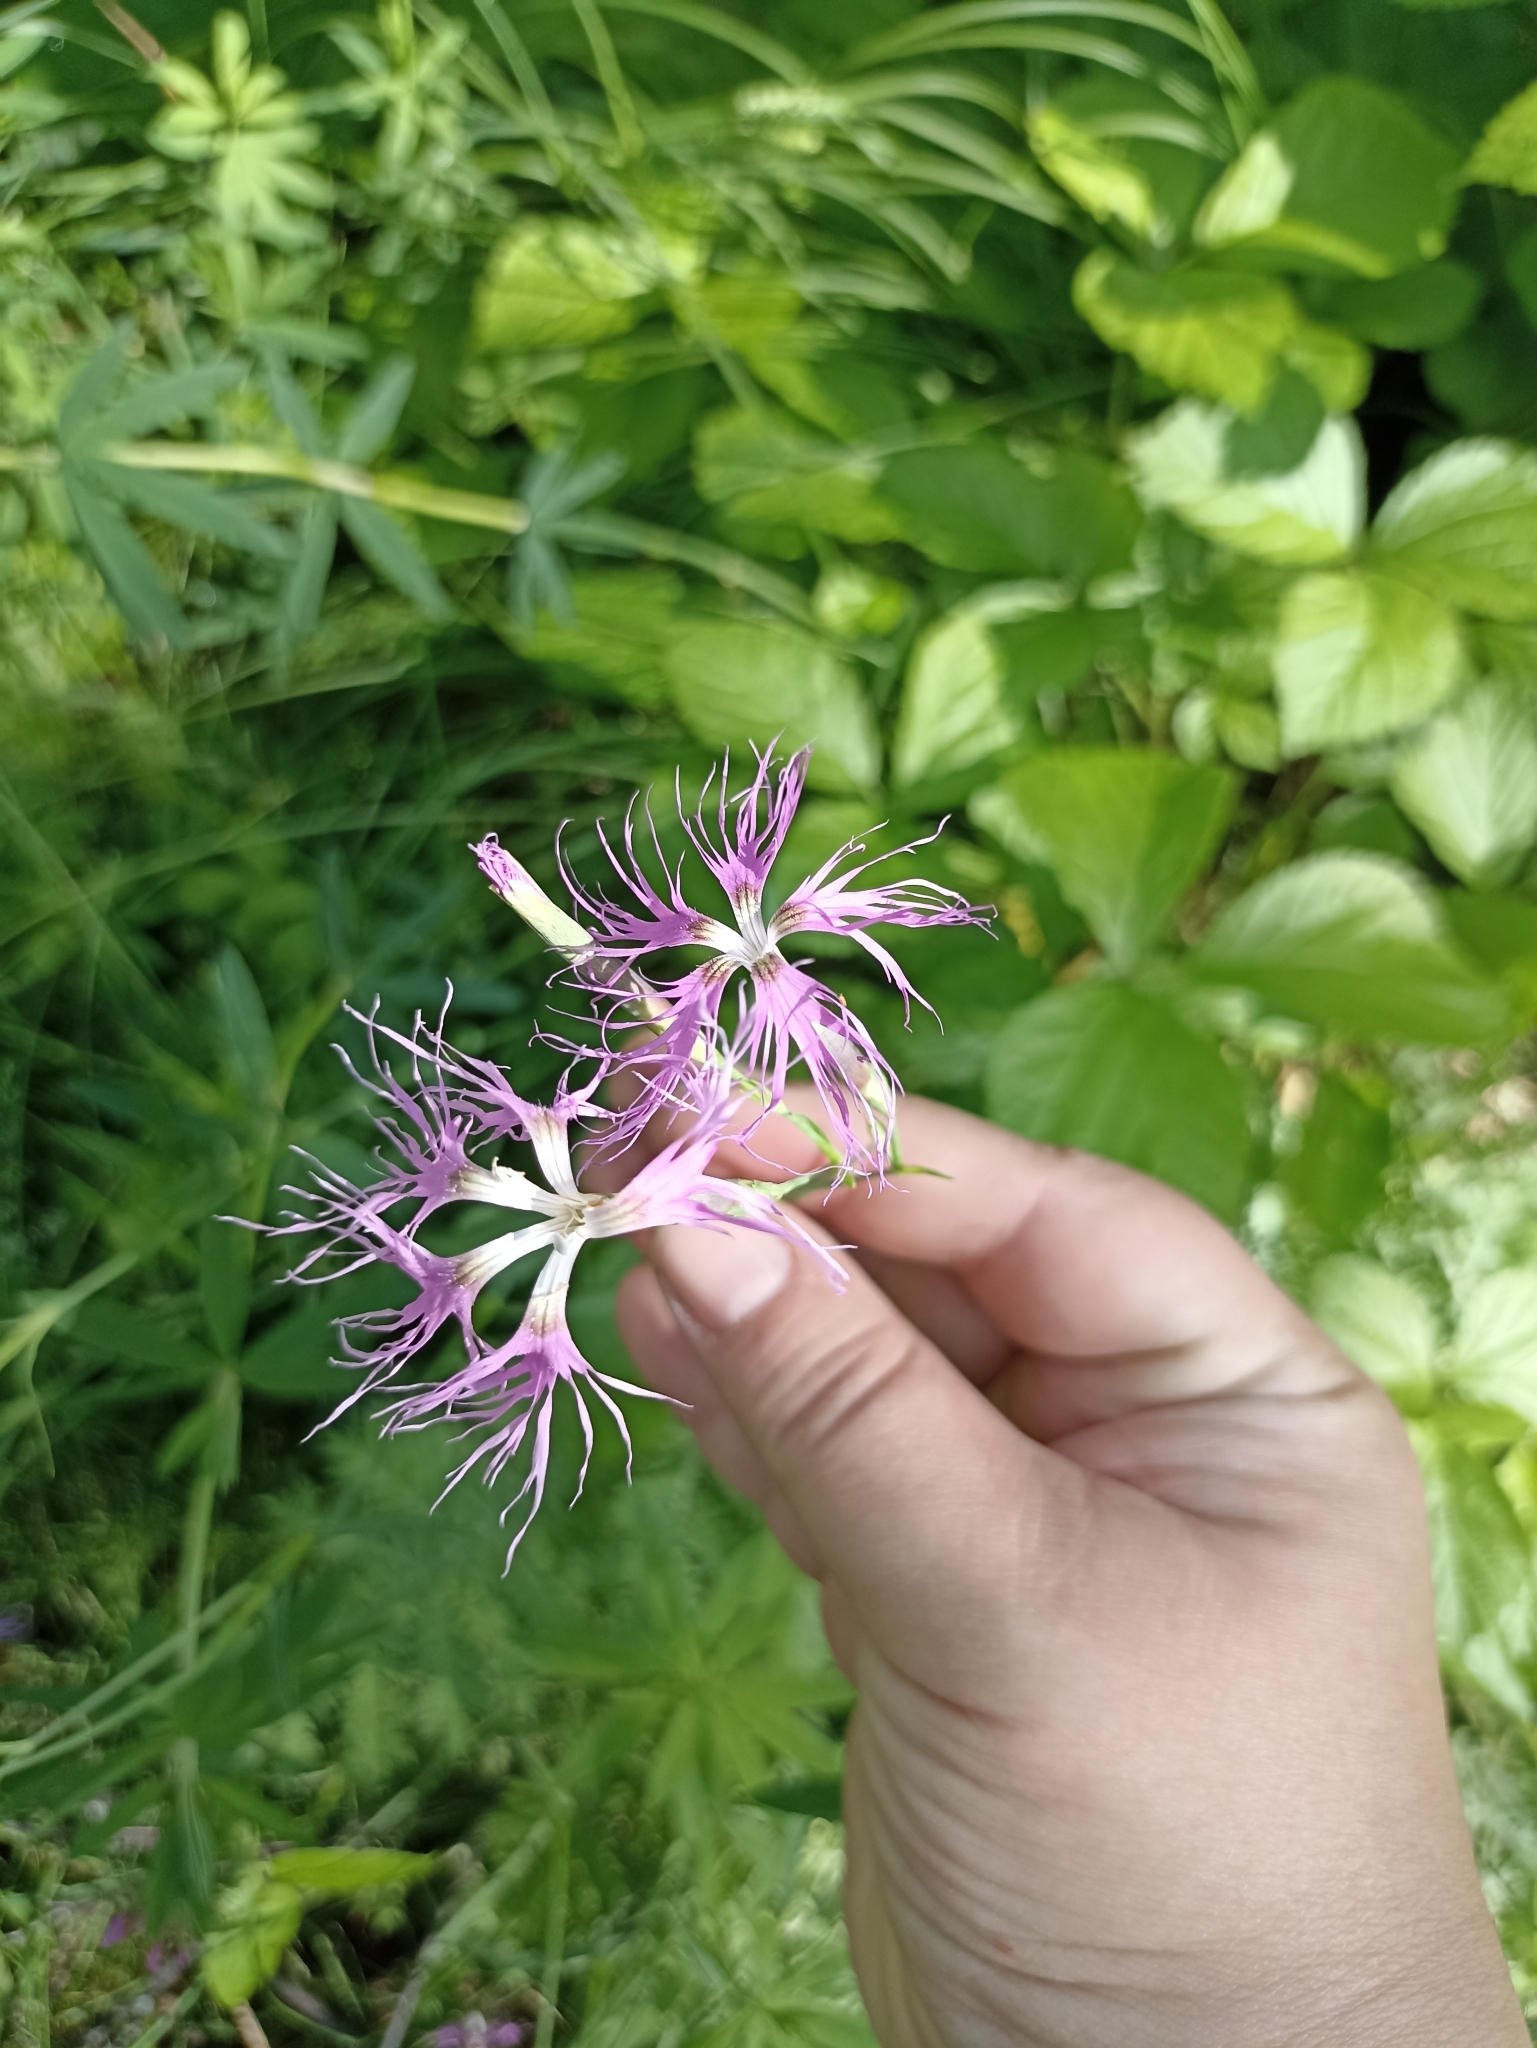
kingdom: Plantae
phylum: Tracheophyta
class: Magnoliopsida
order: Caryophyllales
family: Caryophyllaceae
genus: Dianthus
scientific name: Dianthus superbus
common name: Fringed pink
